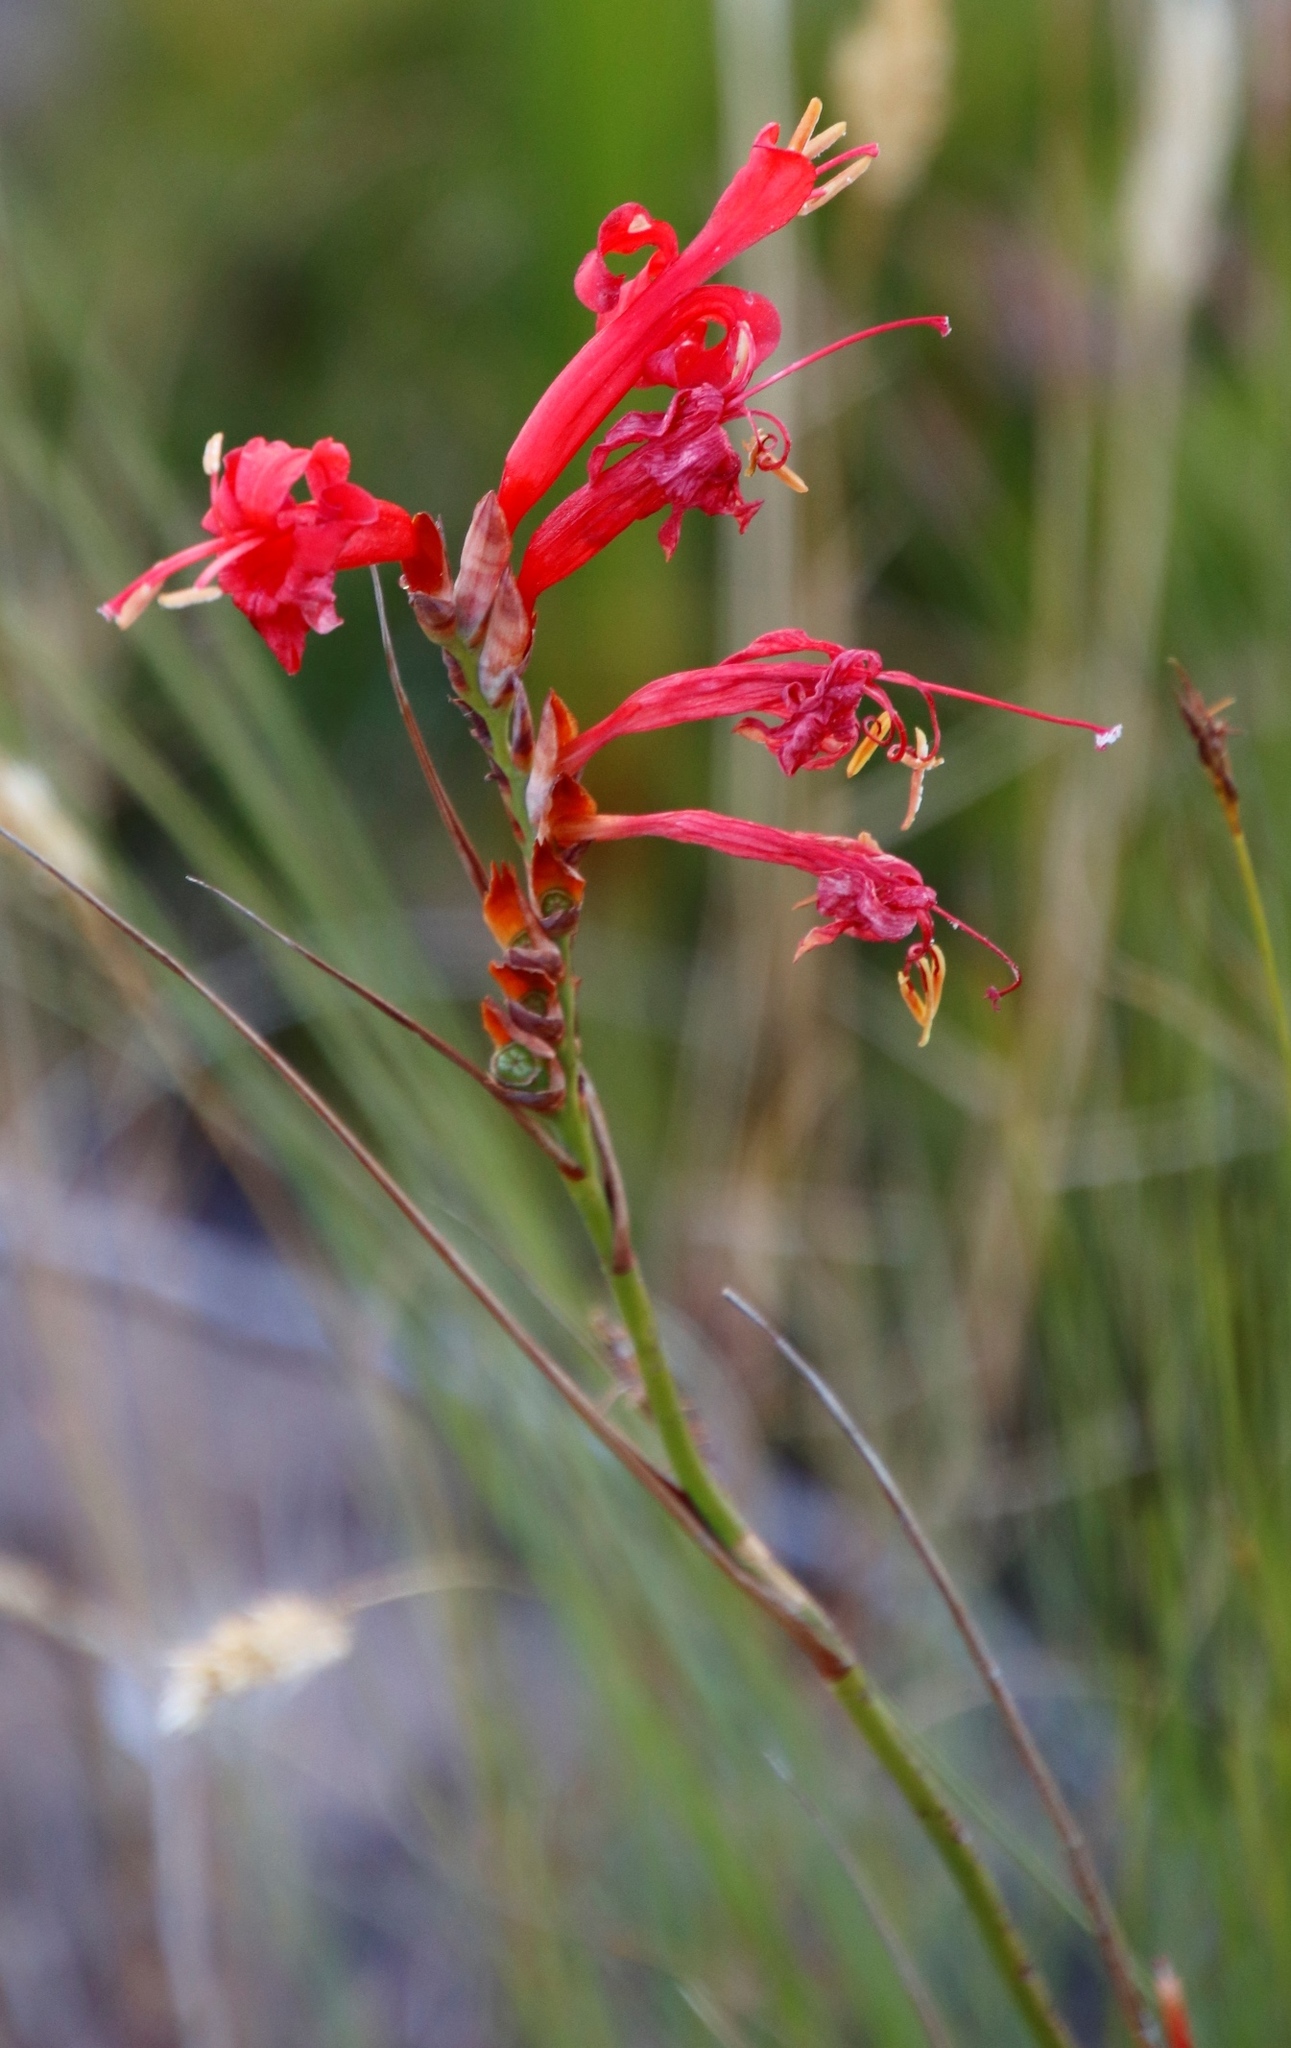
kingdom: Plantae
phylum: Tracheophyta
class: Liliopsida
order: Asparagales
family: Iridaceae
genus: Tritoniopsis
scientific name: Tritoniopsis triticea
